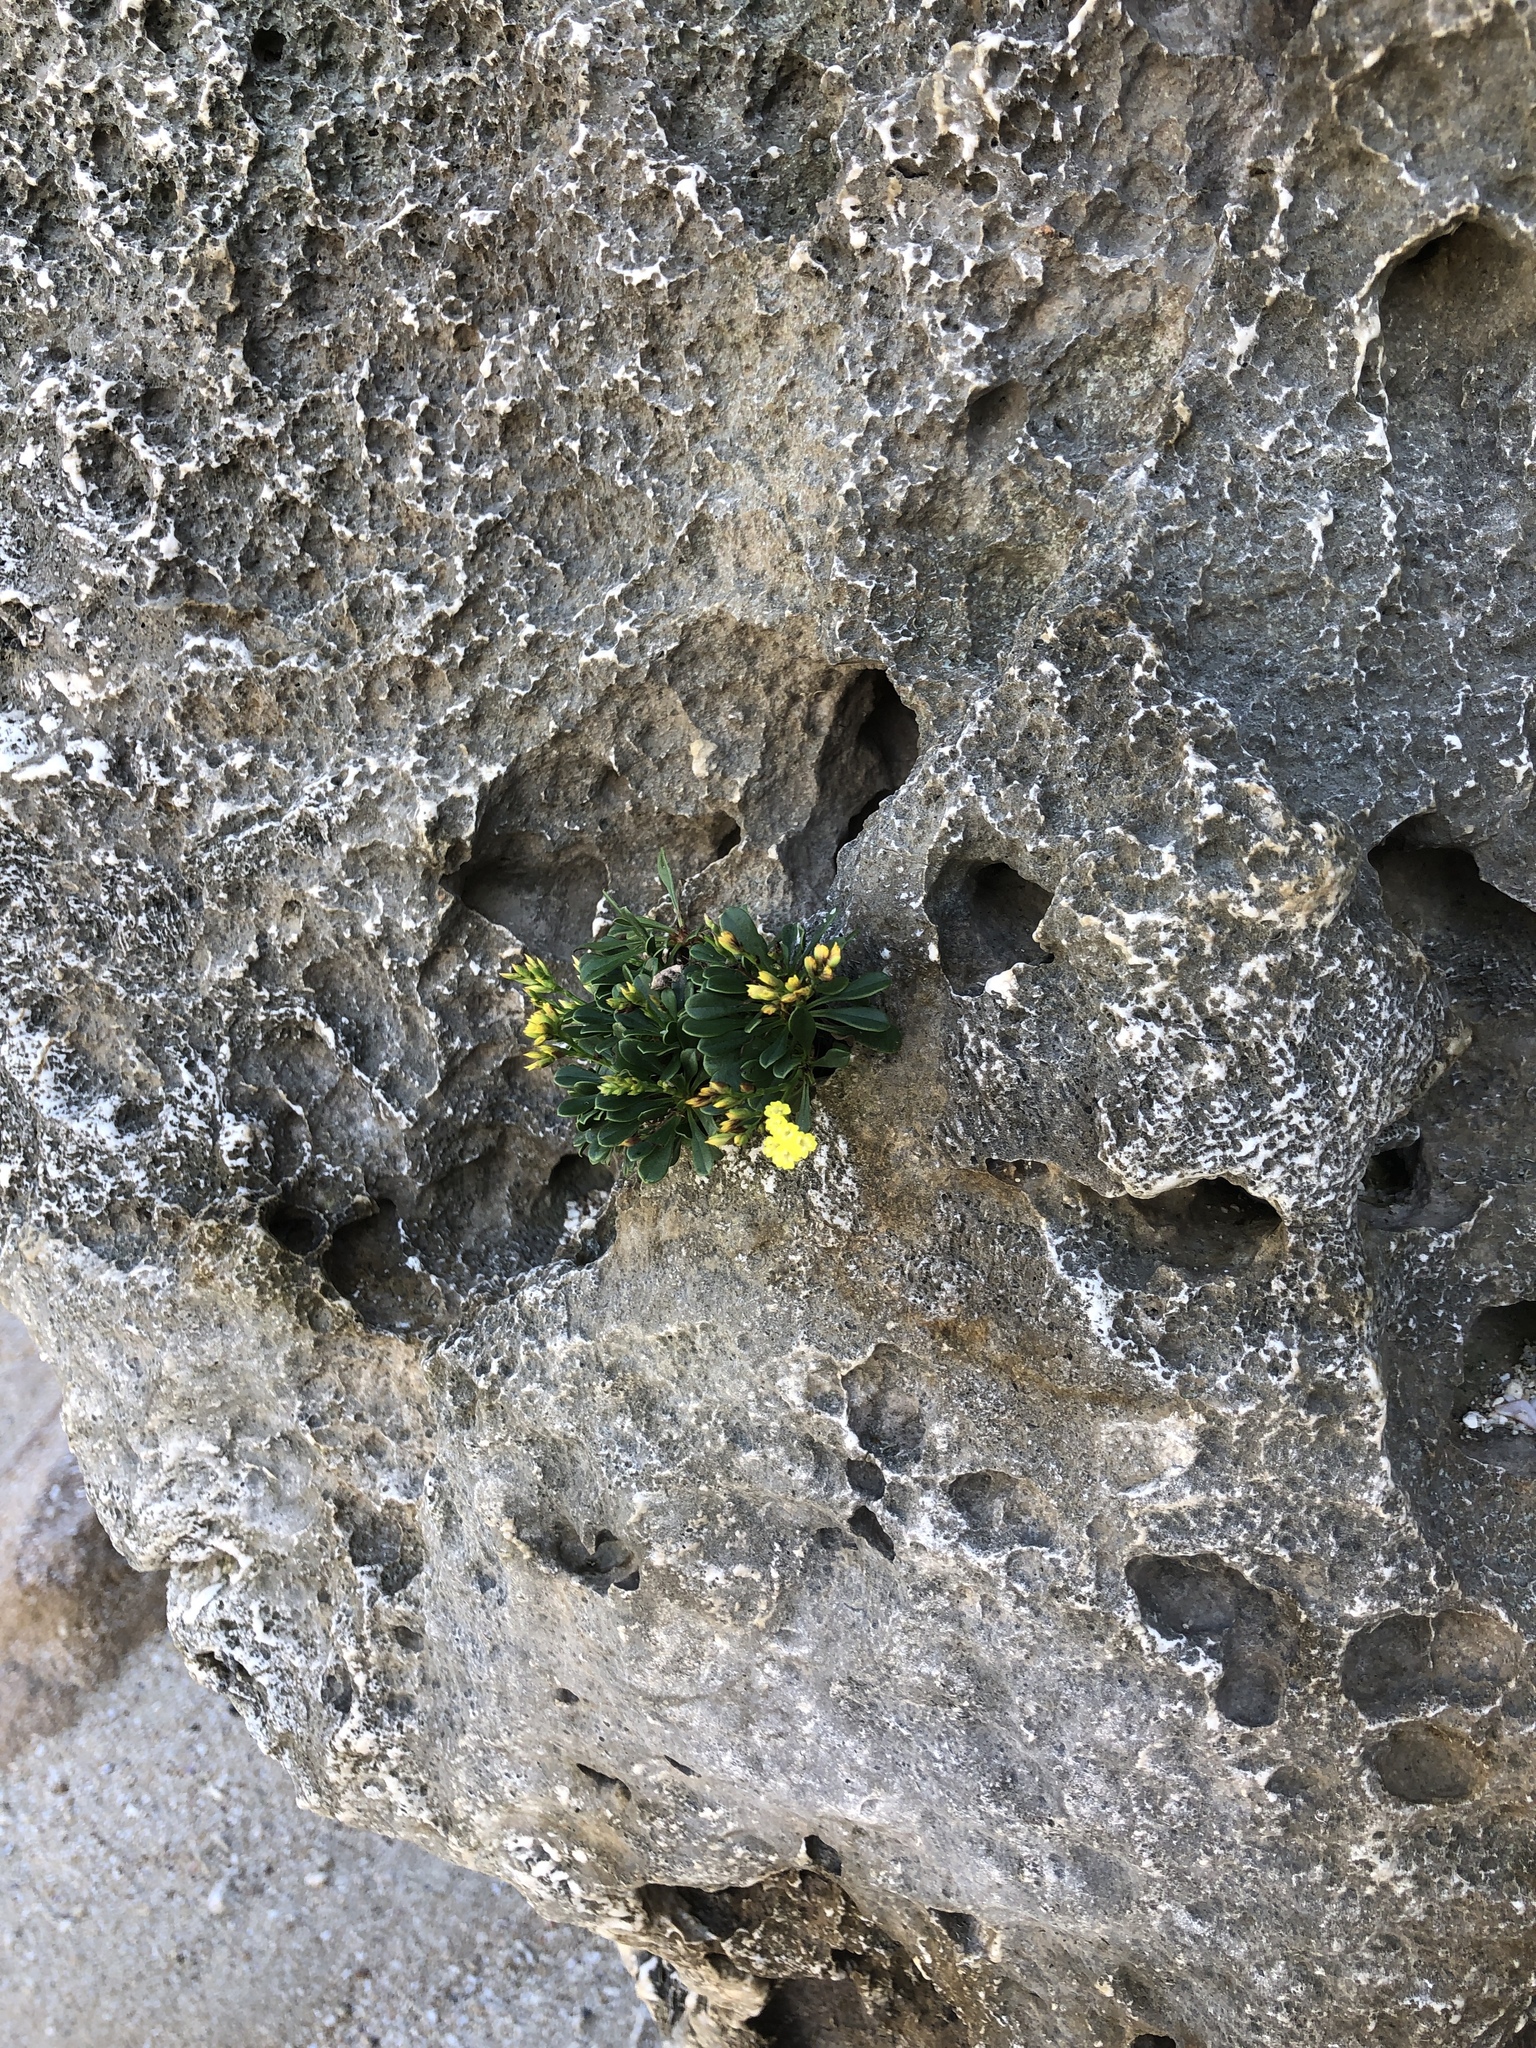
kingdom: Plantae
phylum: Tracheophyta
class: Magnoliopsida
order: Caryophyllales
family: Plumbaginaceae
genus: Limonium
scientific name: Limonium wrightii
